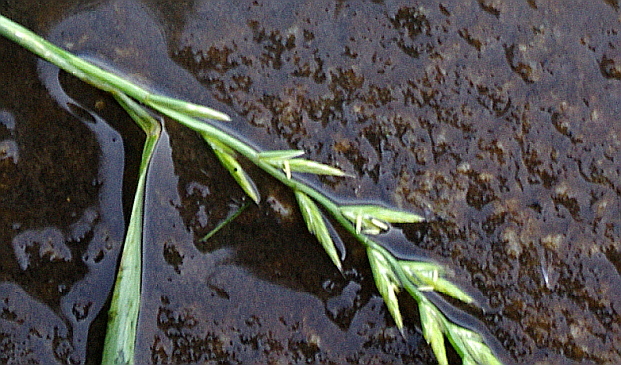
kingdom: Plantae
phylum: Tracheophyta
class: Liliopsida
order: Poales
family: Poaceae
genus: Lolium
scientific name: Lolium multiflorum
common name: Annual ryegrass
